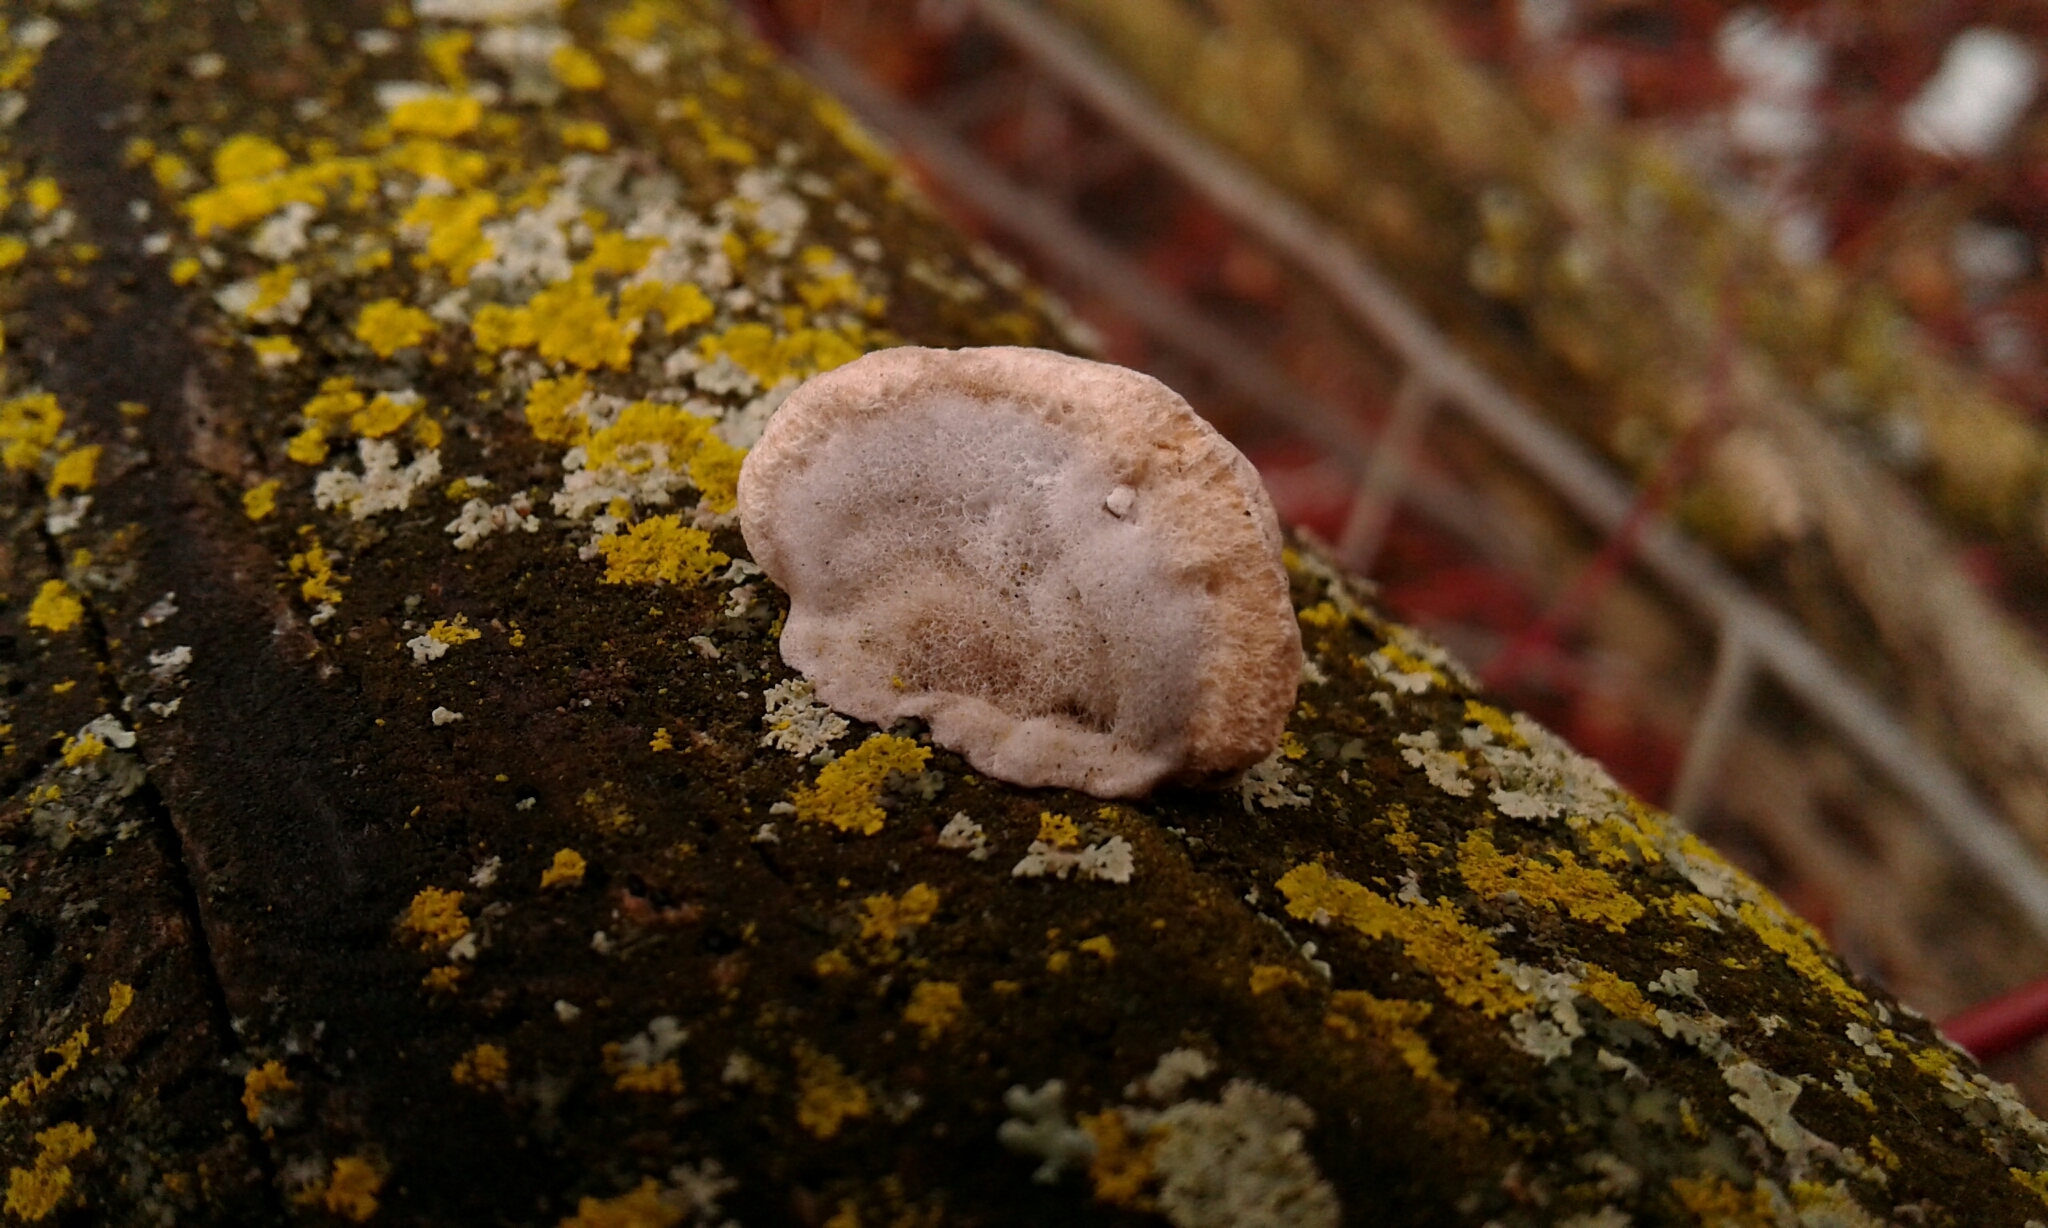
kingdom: Fungi
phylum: Basidiomycota
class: Agaricomycetes
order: Polyporales
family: Polyporaceae
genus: Trametes
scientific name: Trametes hirsuta
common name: Hairy bracket
